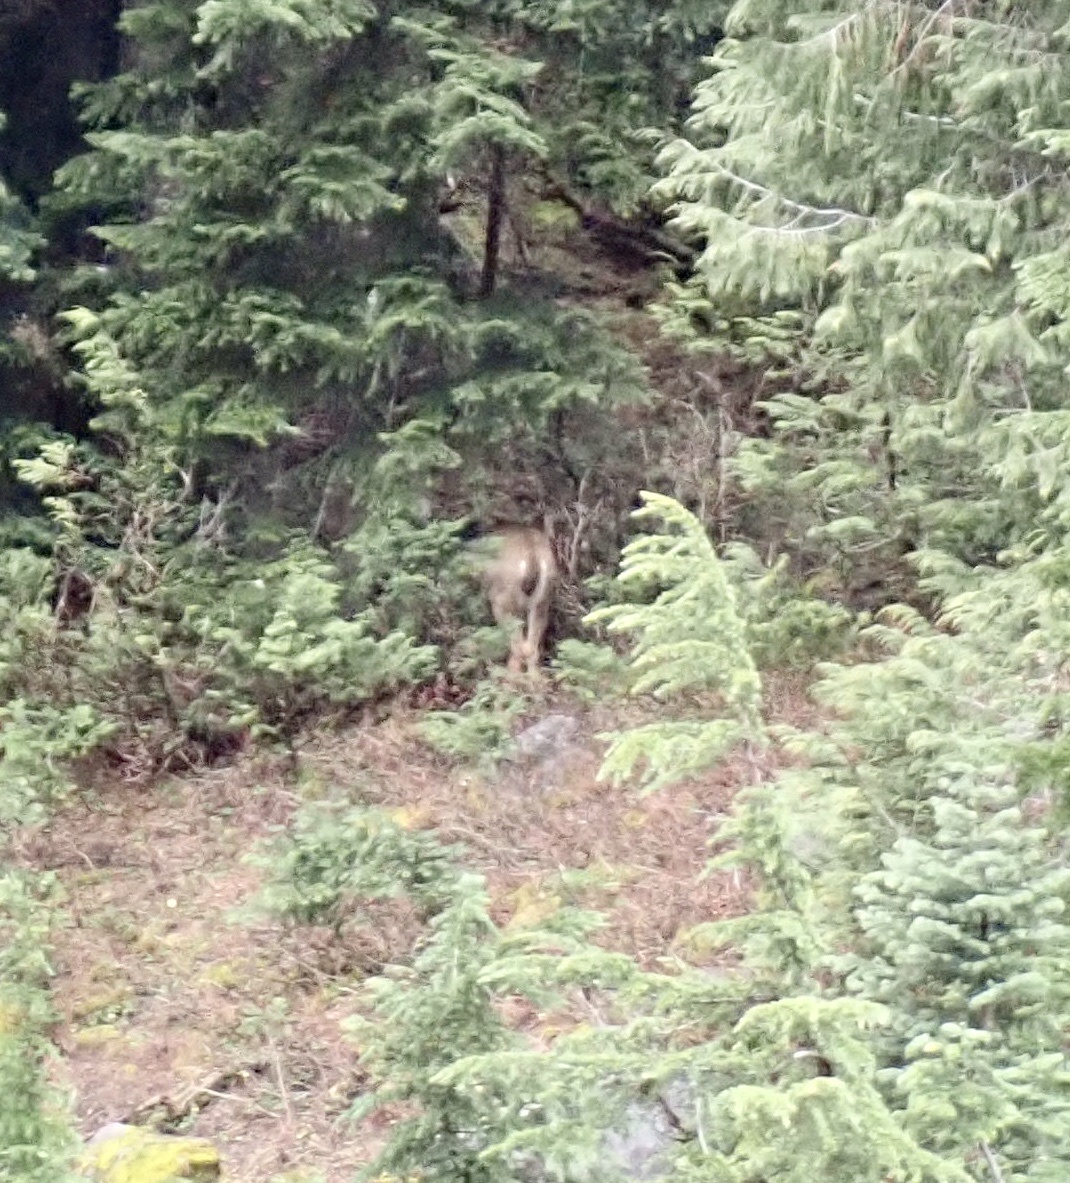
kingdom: Animalia
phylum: Chordata
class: Mammalia
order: Artiodactyla
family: Cervidae
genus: Odocoileus
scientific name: Odocoileus hemionus
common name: Mule deer
